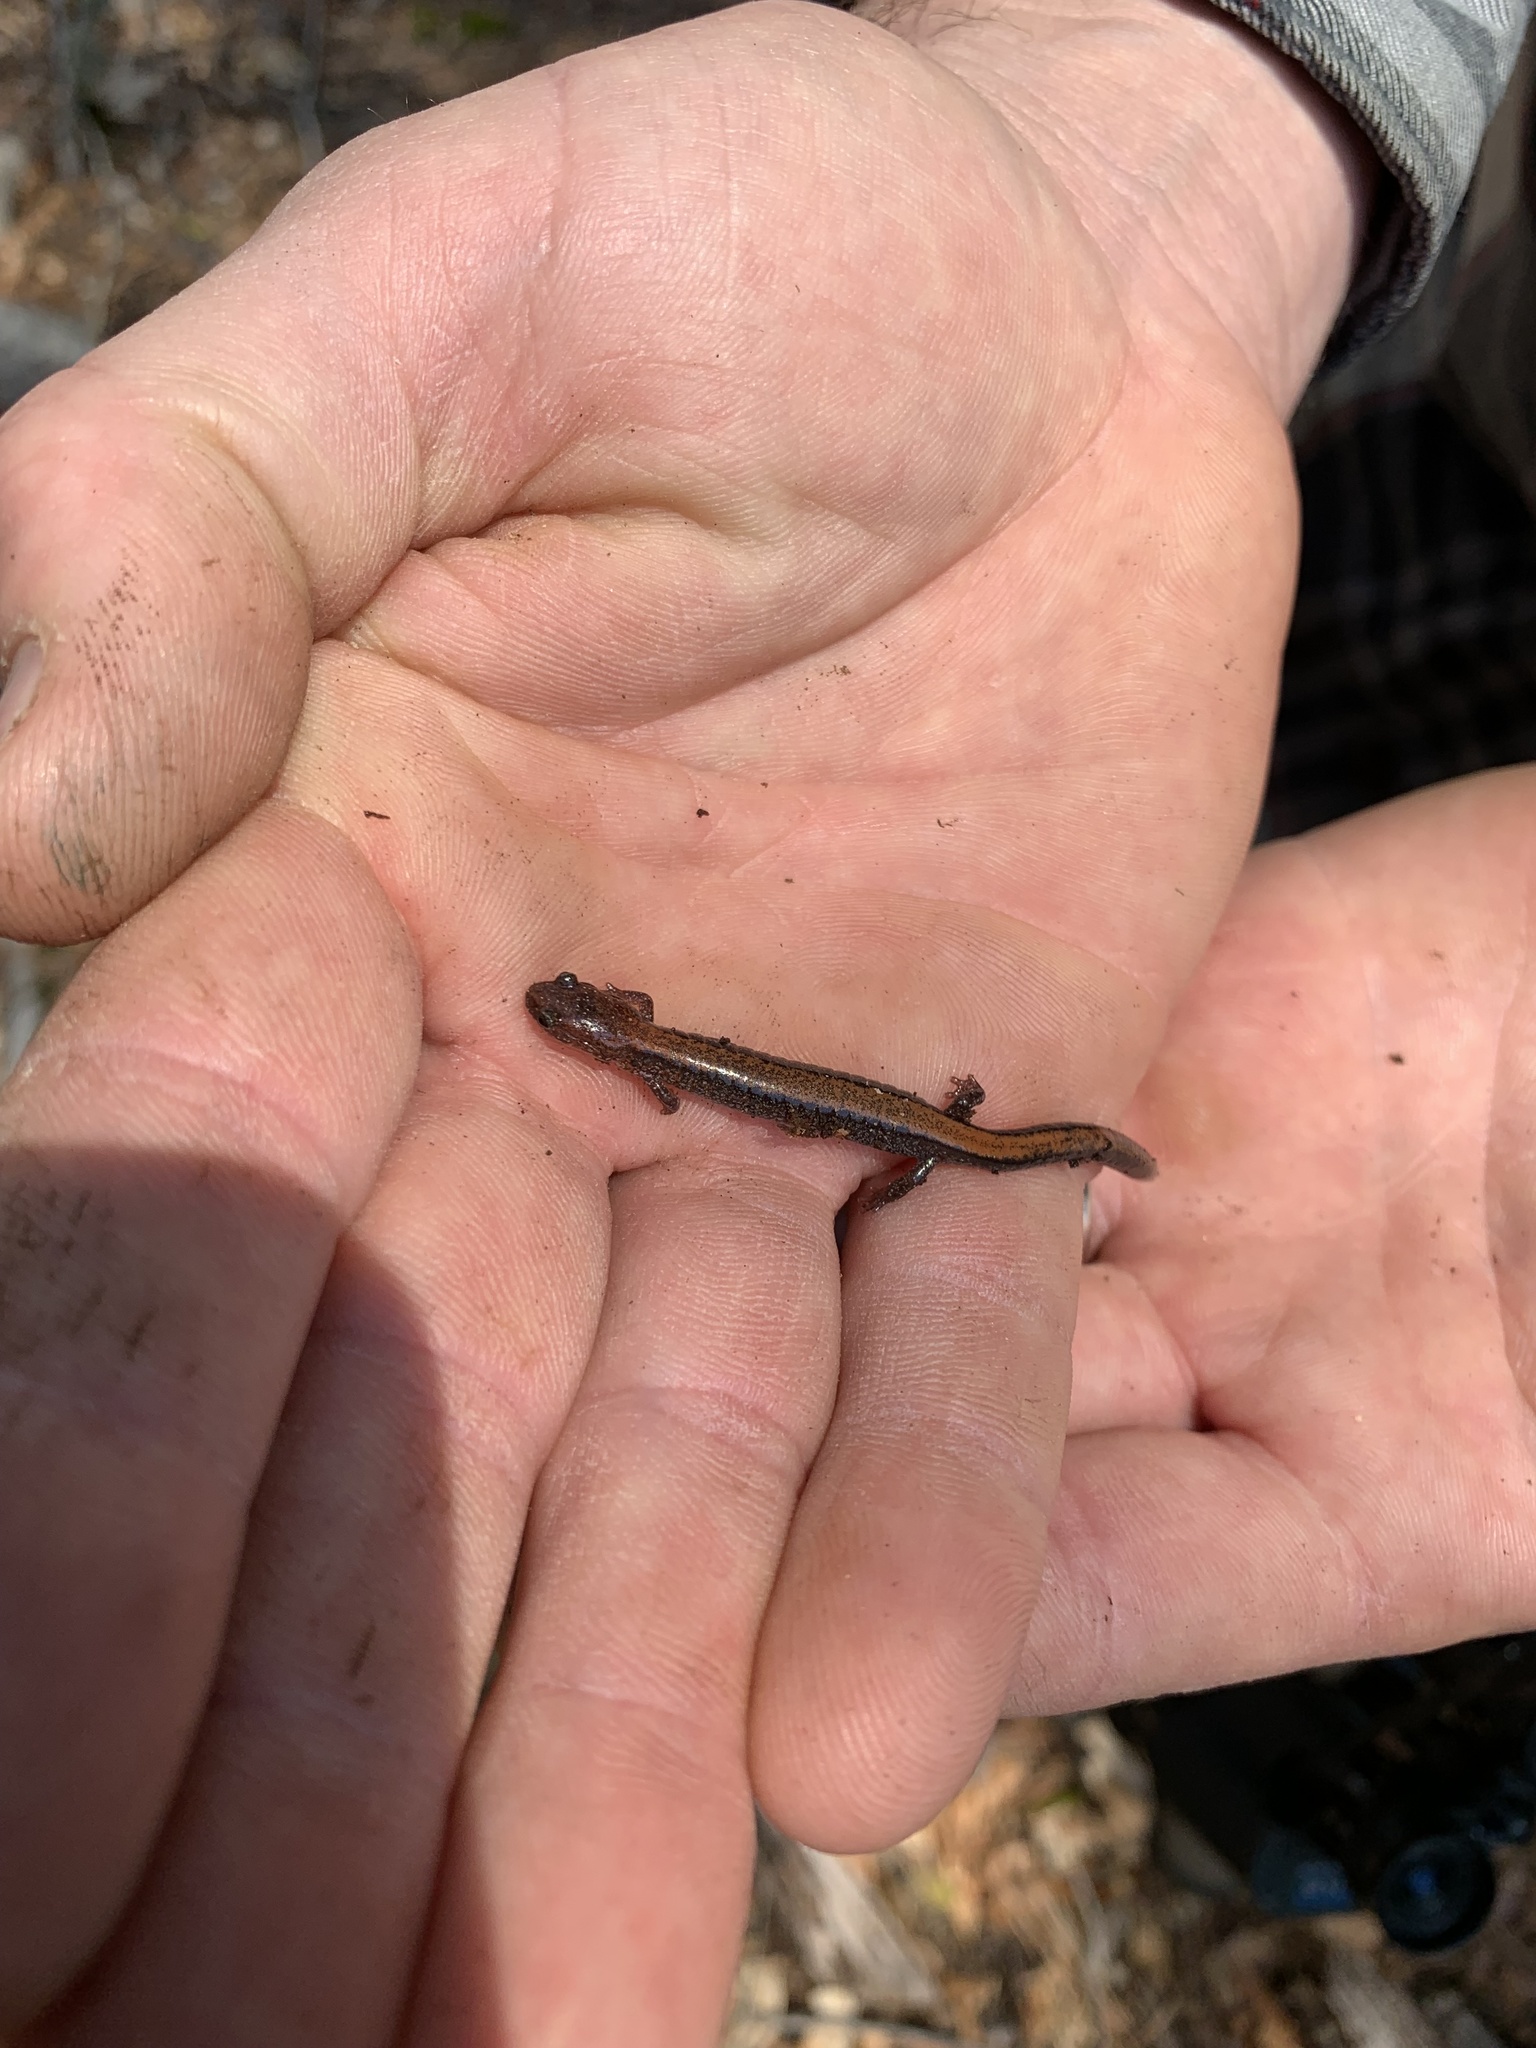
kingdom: Animalia
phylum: Chordata
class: Amphibia
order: Caudata
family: Plethodontidae
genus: Plethodon
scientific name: Plethodon cinereus
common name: Redback salamander
